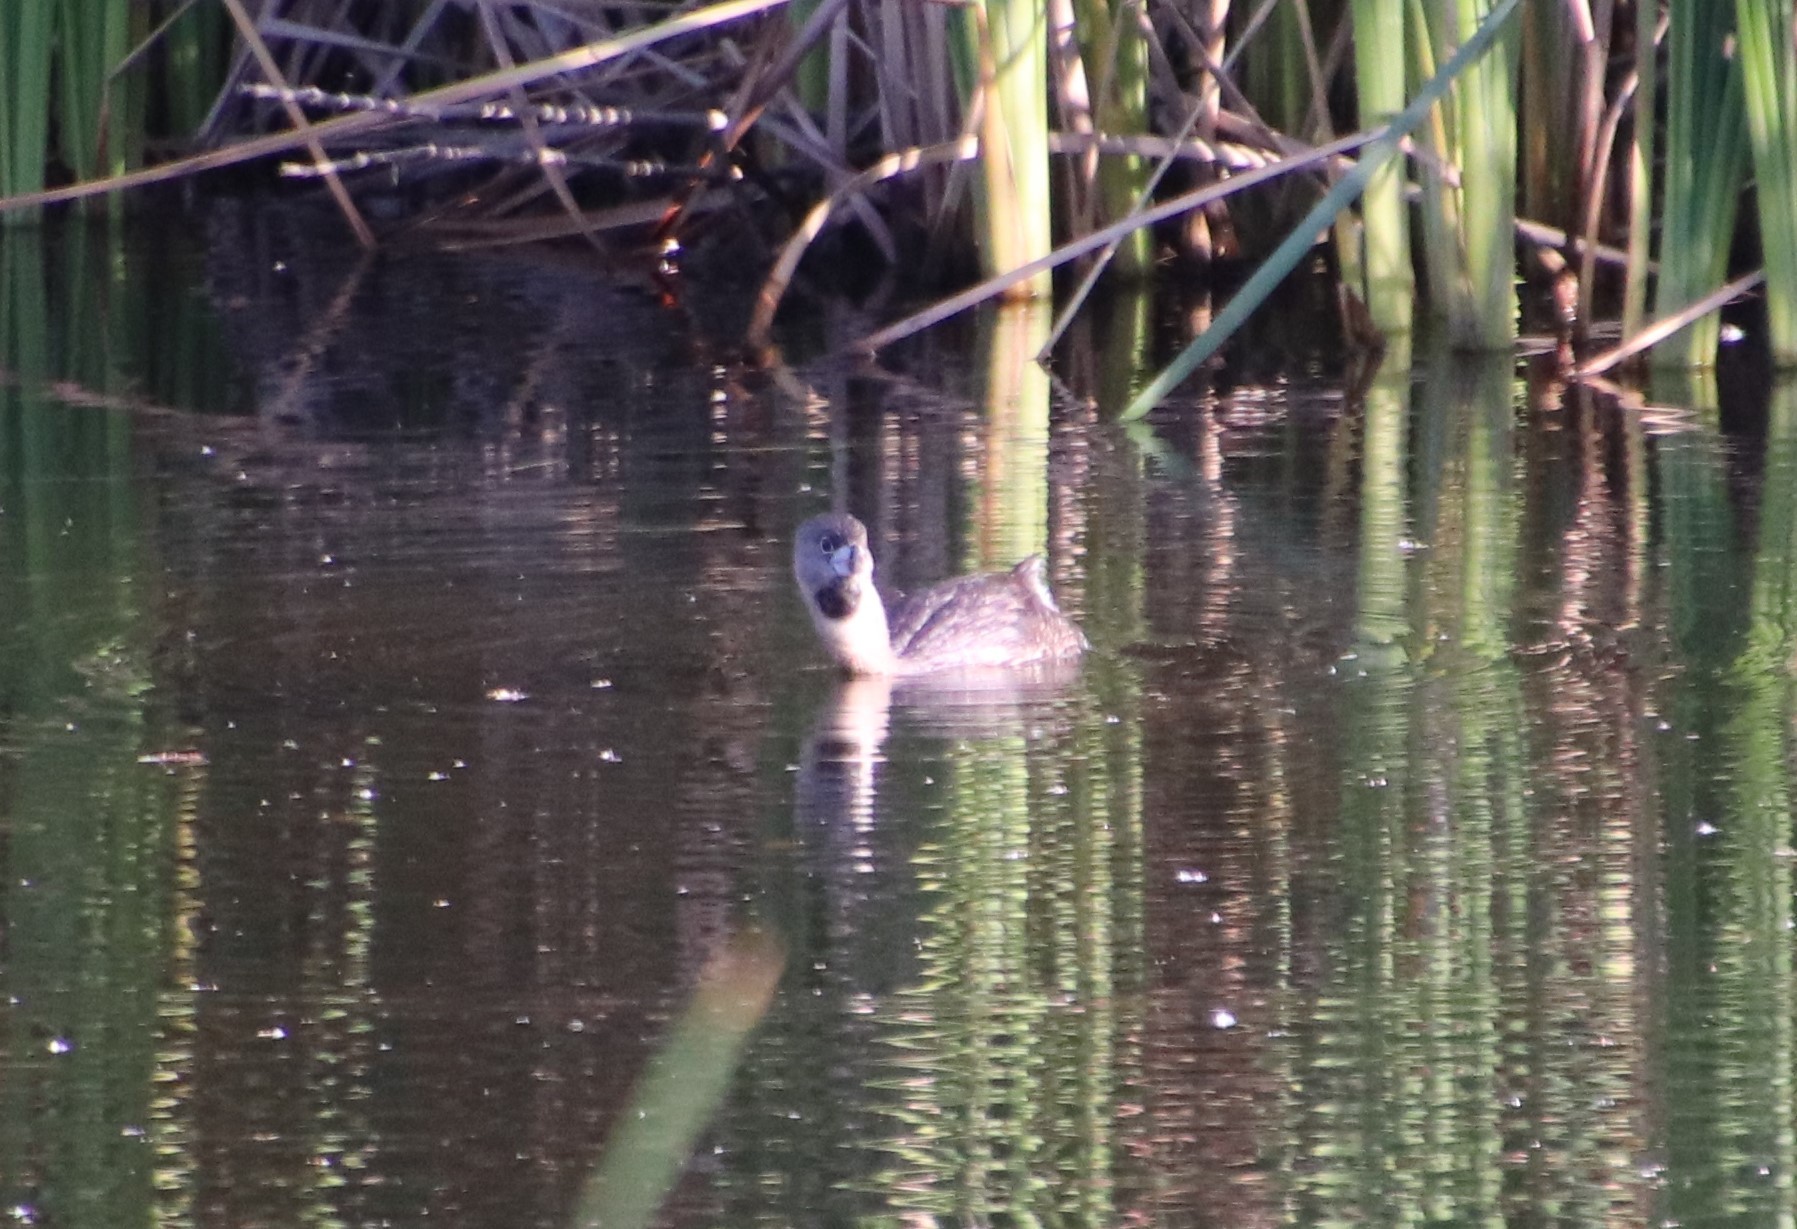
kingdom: Animalia
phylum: Chordata
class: Aves
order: Podicipediformes
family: Podicipedidae
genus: Podilymbus
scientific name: Podilymbus podiceps
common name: Pied-billed grebe
